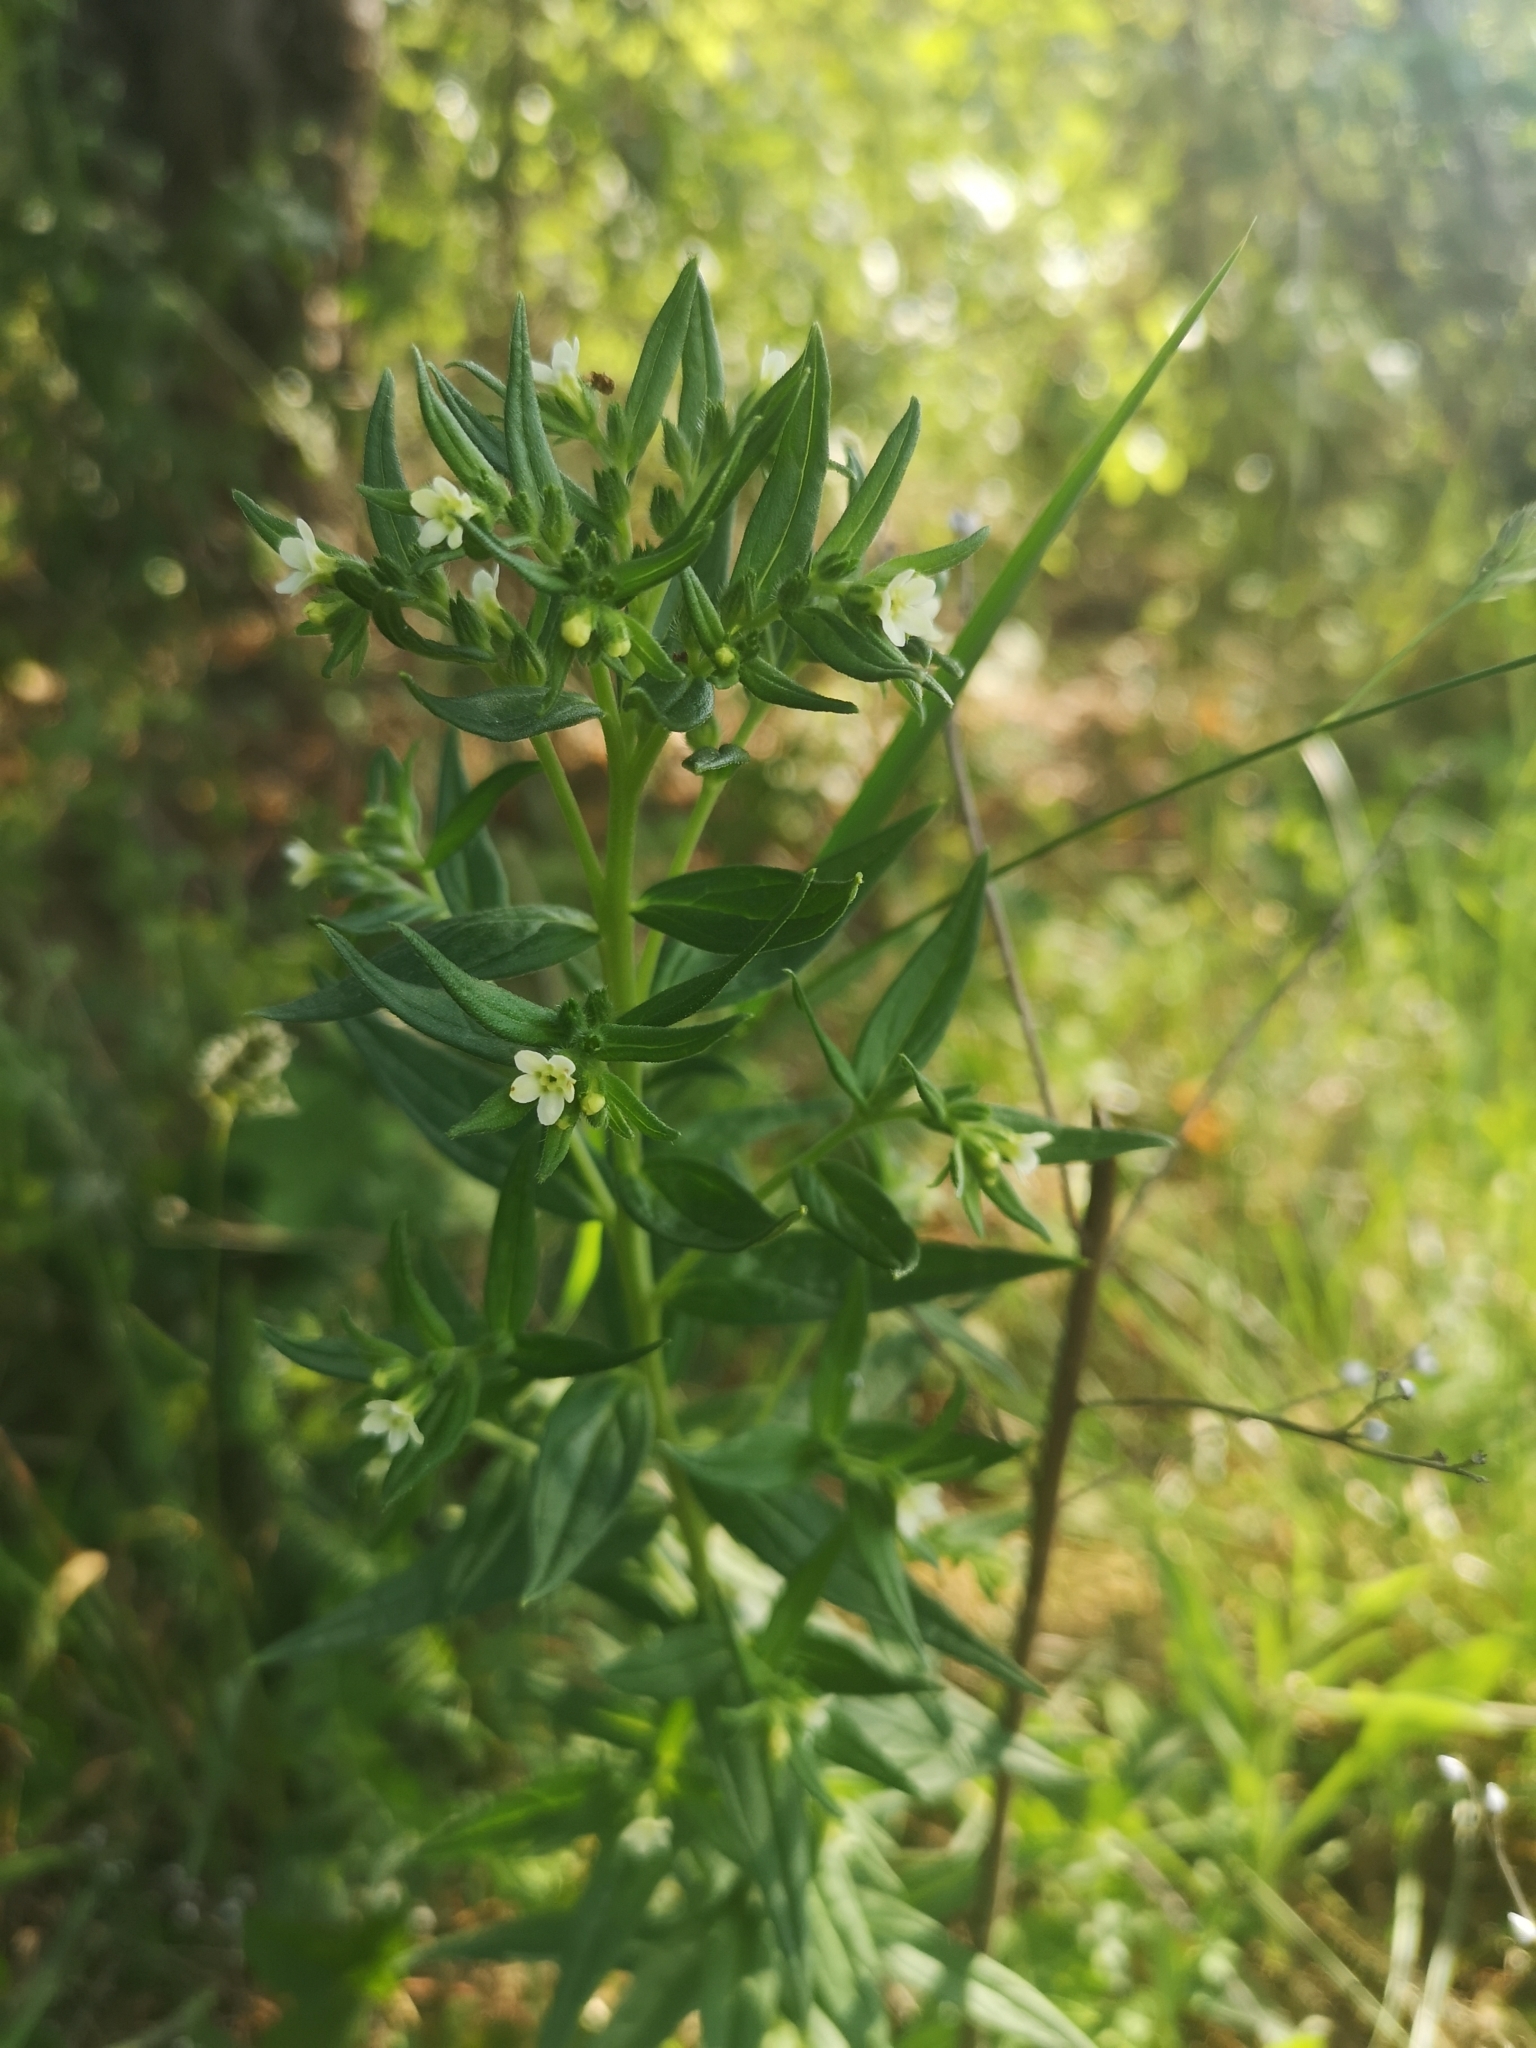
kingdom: Plantae
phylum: Tracheophyta
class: Magnoliopsida
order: Boraginales
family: Boraginaceae
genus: Lithospermum
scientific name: Lithospermum officinale
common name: Common gromwell
